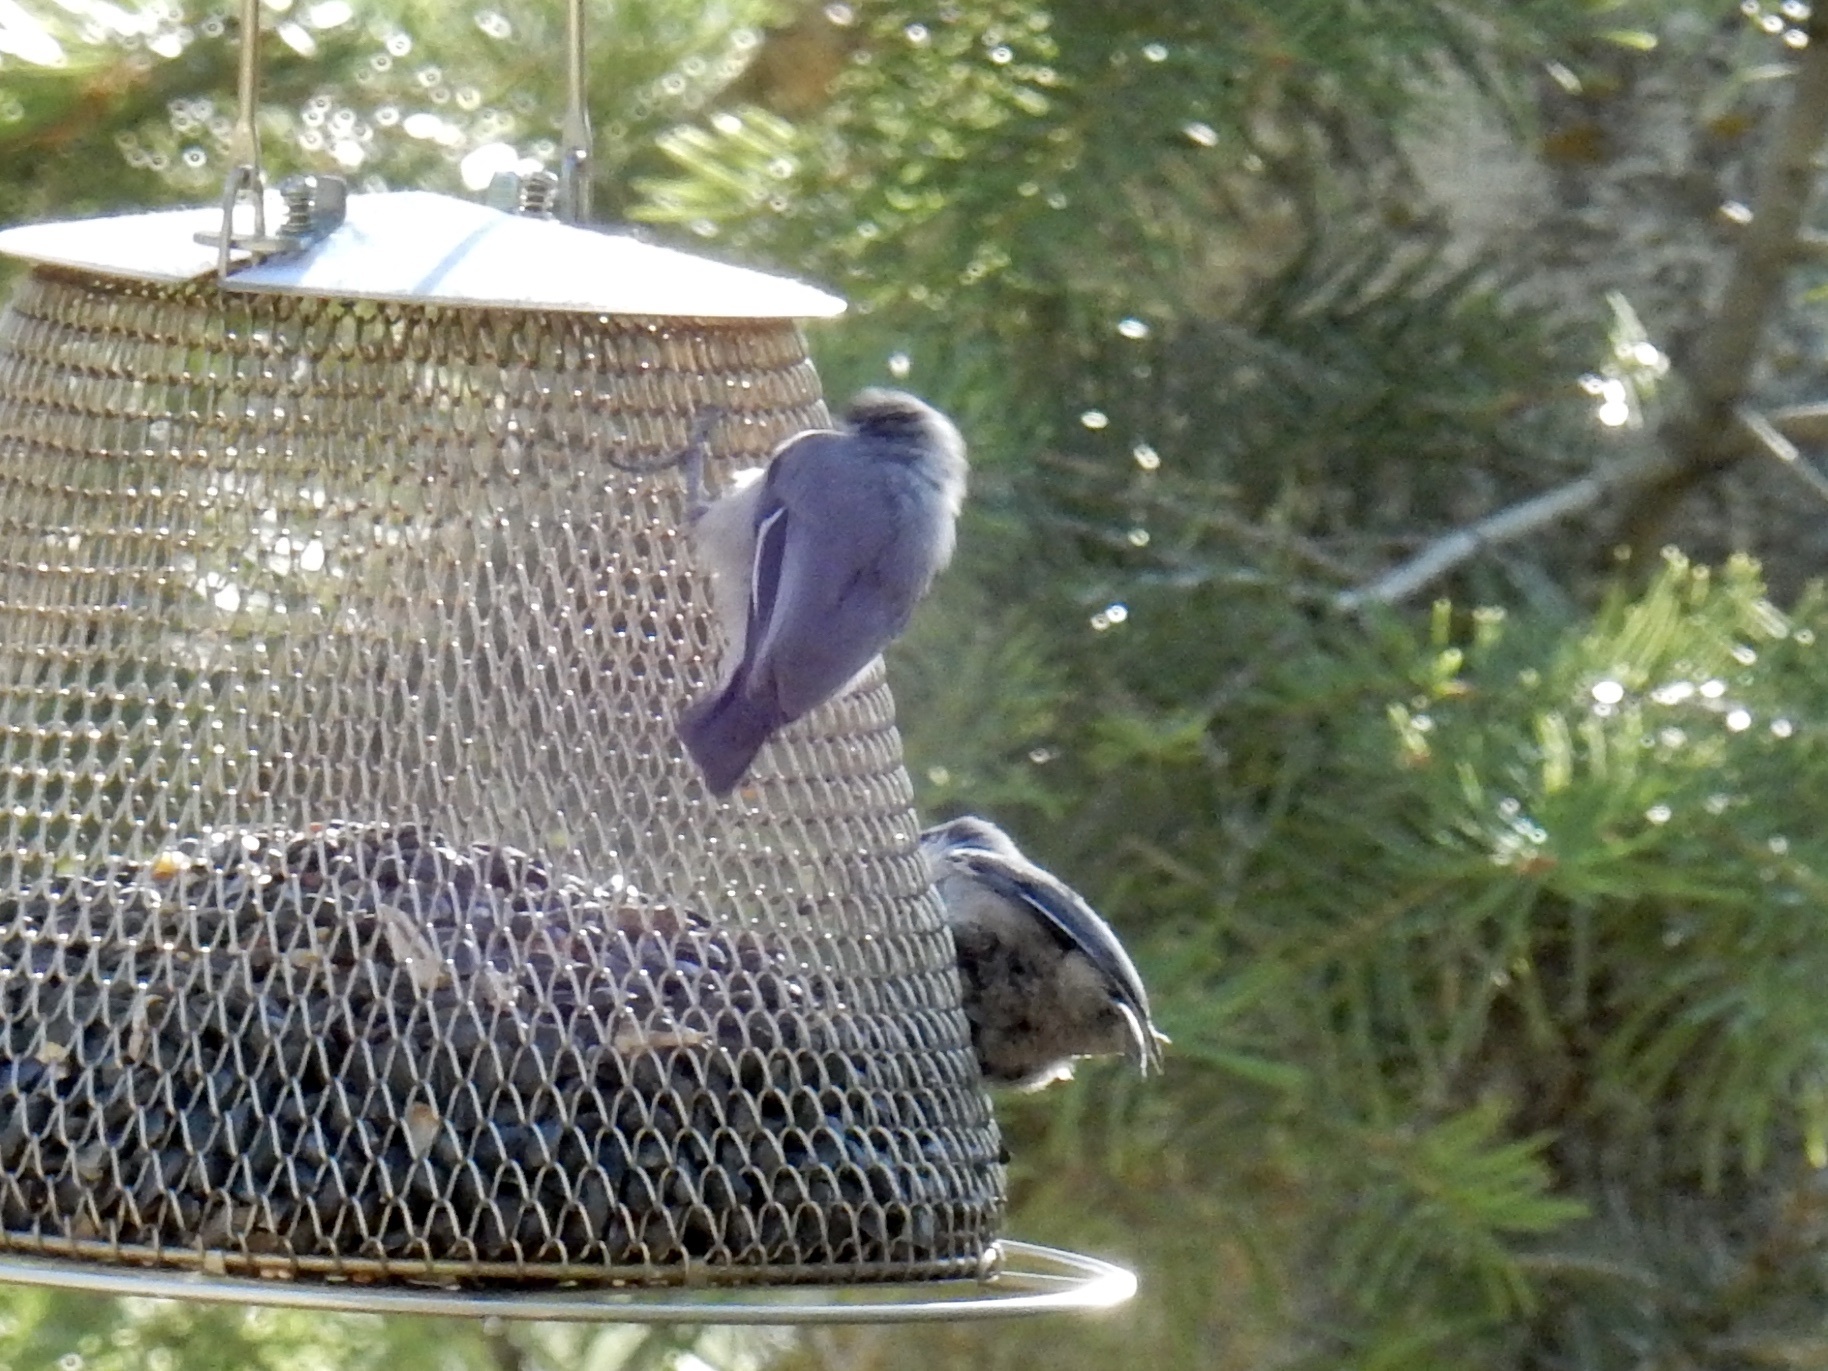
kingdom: Animalia
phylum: Chordata
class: Aves
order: Passeriformes
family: Sittidae
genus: Sitta
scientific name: Sitta pygmaea
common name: Pygmy nuthatch
